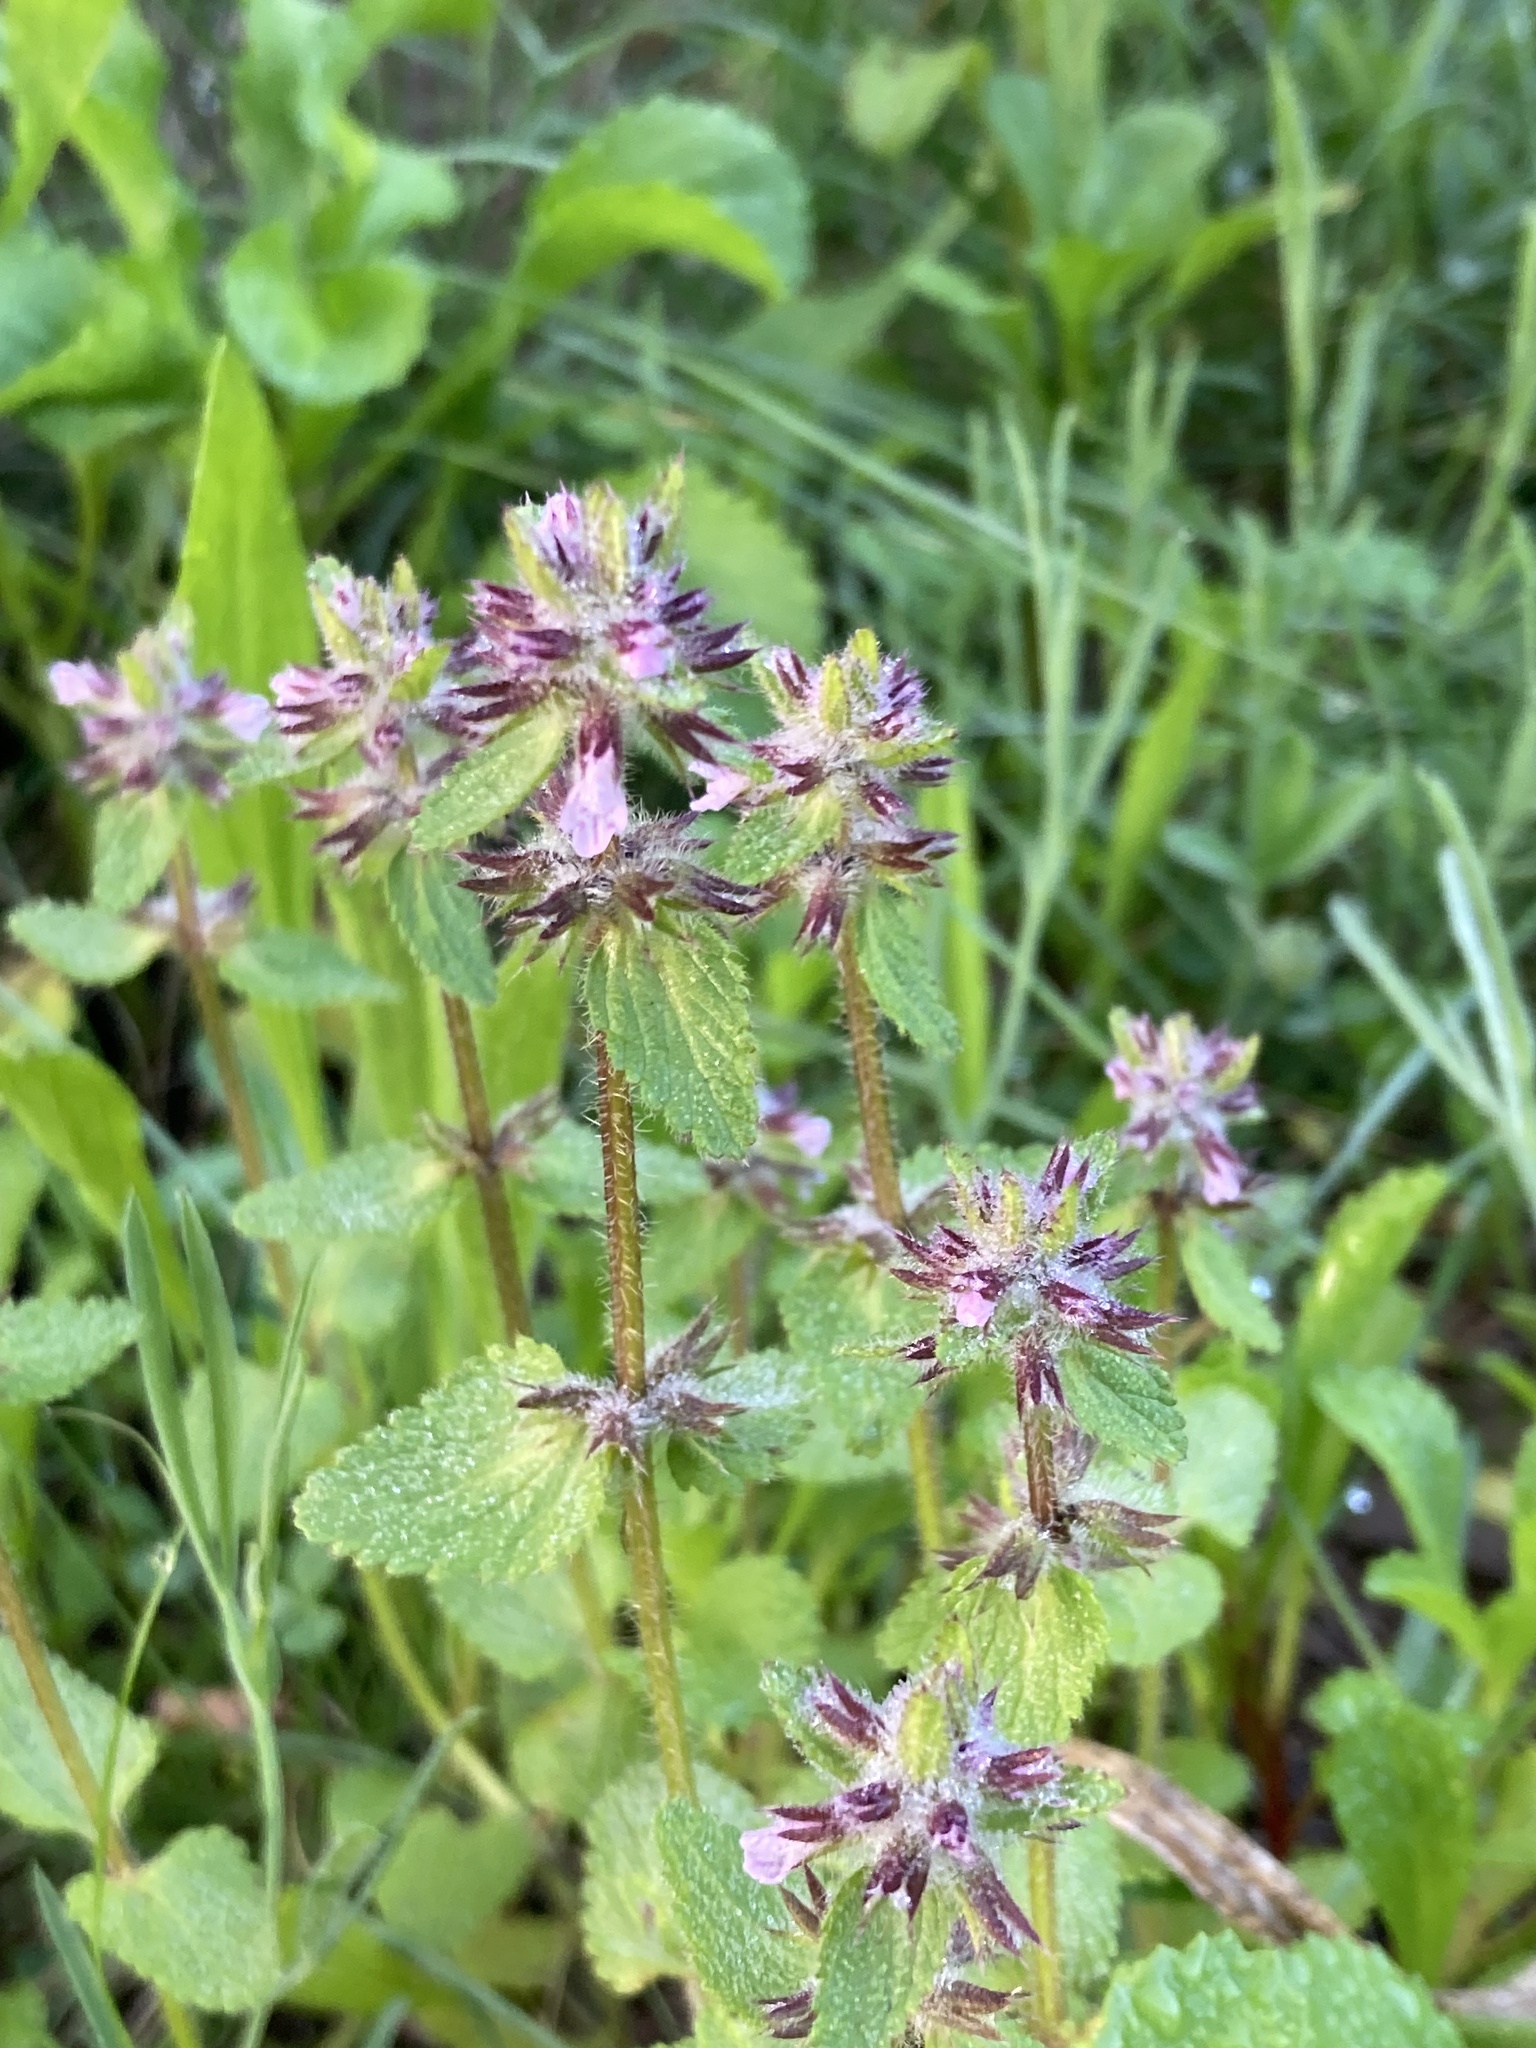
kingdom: Plantae
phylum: Tracheophyta
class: Magnoliopsida
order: Lamiales
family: Lamiaceae
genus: Stachys
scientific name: Stachys arvensis
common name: Field woundwort
